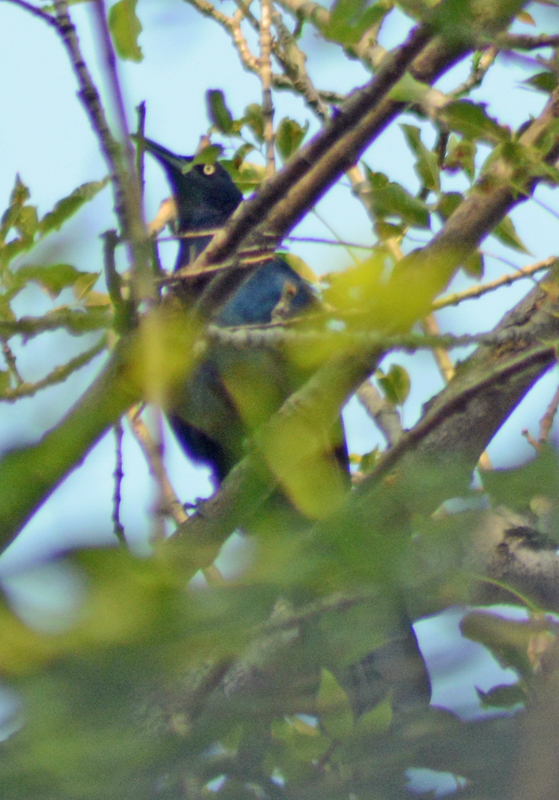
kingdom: Animalia
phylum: Chordata
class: Aves
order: Passeriformes
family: Icteridae
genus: Quiscalus
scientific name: Quiscalus mexicanus
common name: Great-tailed grackle
